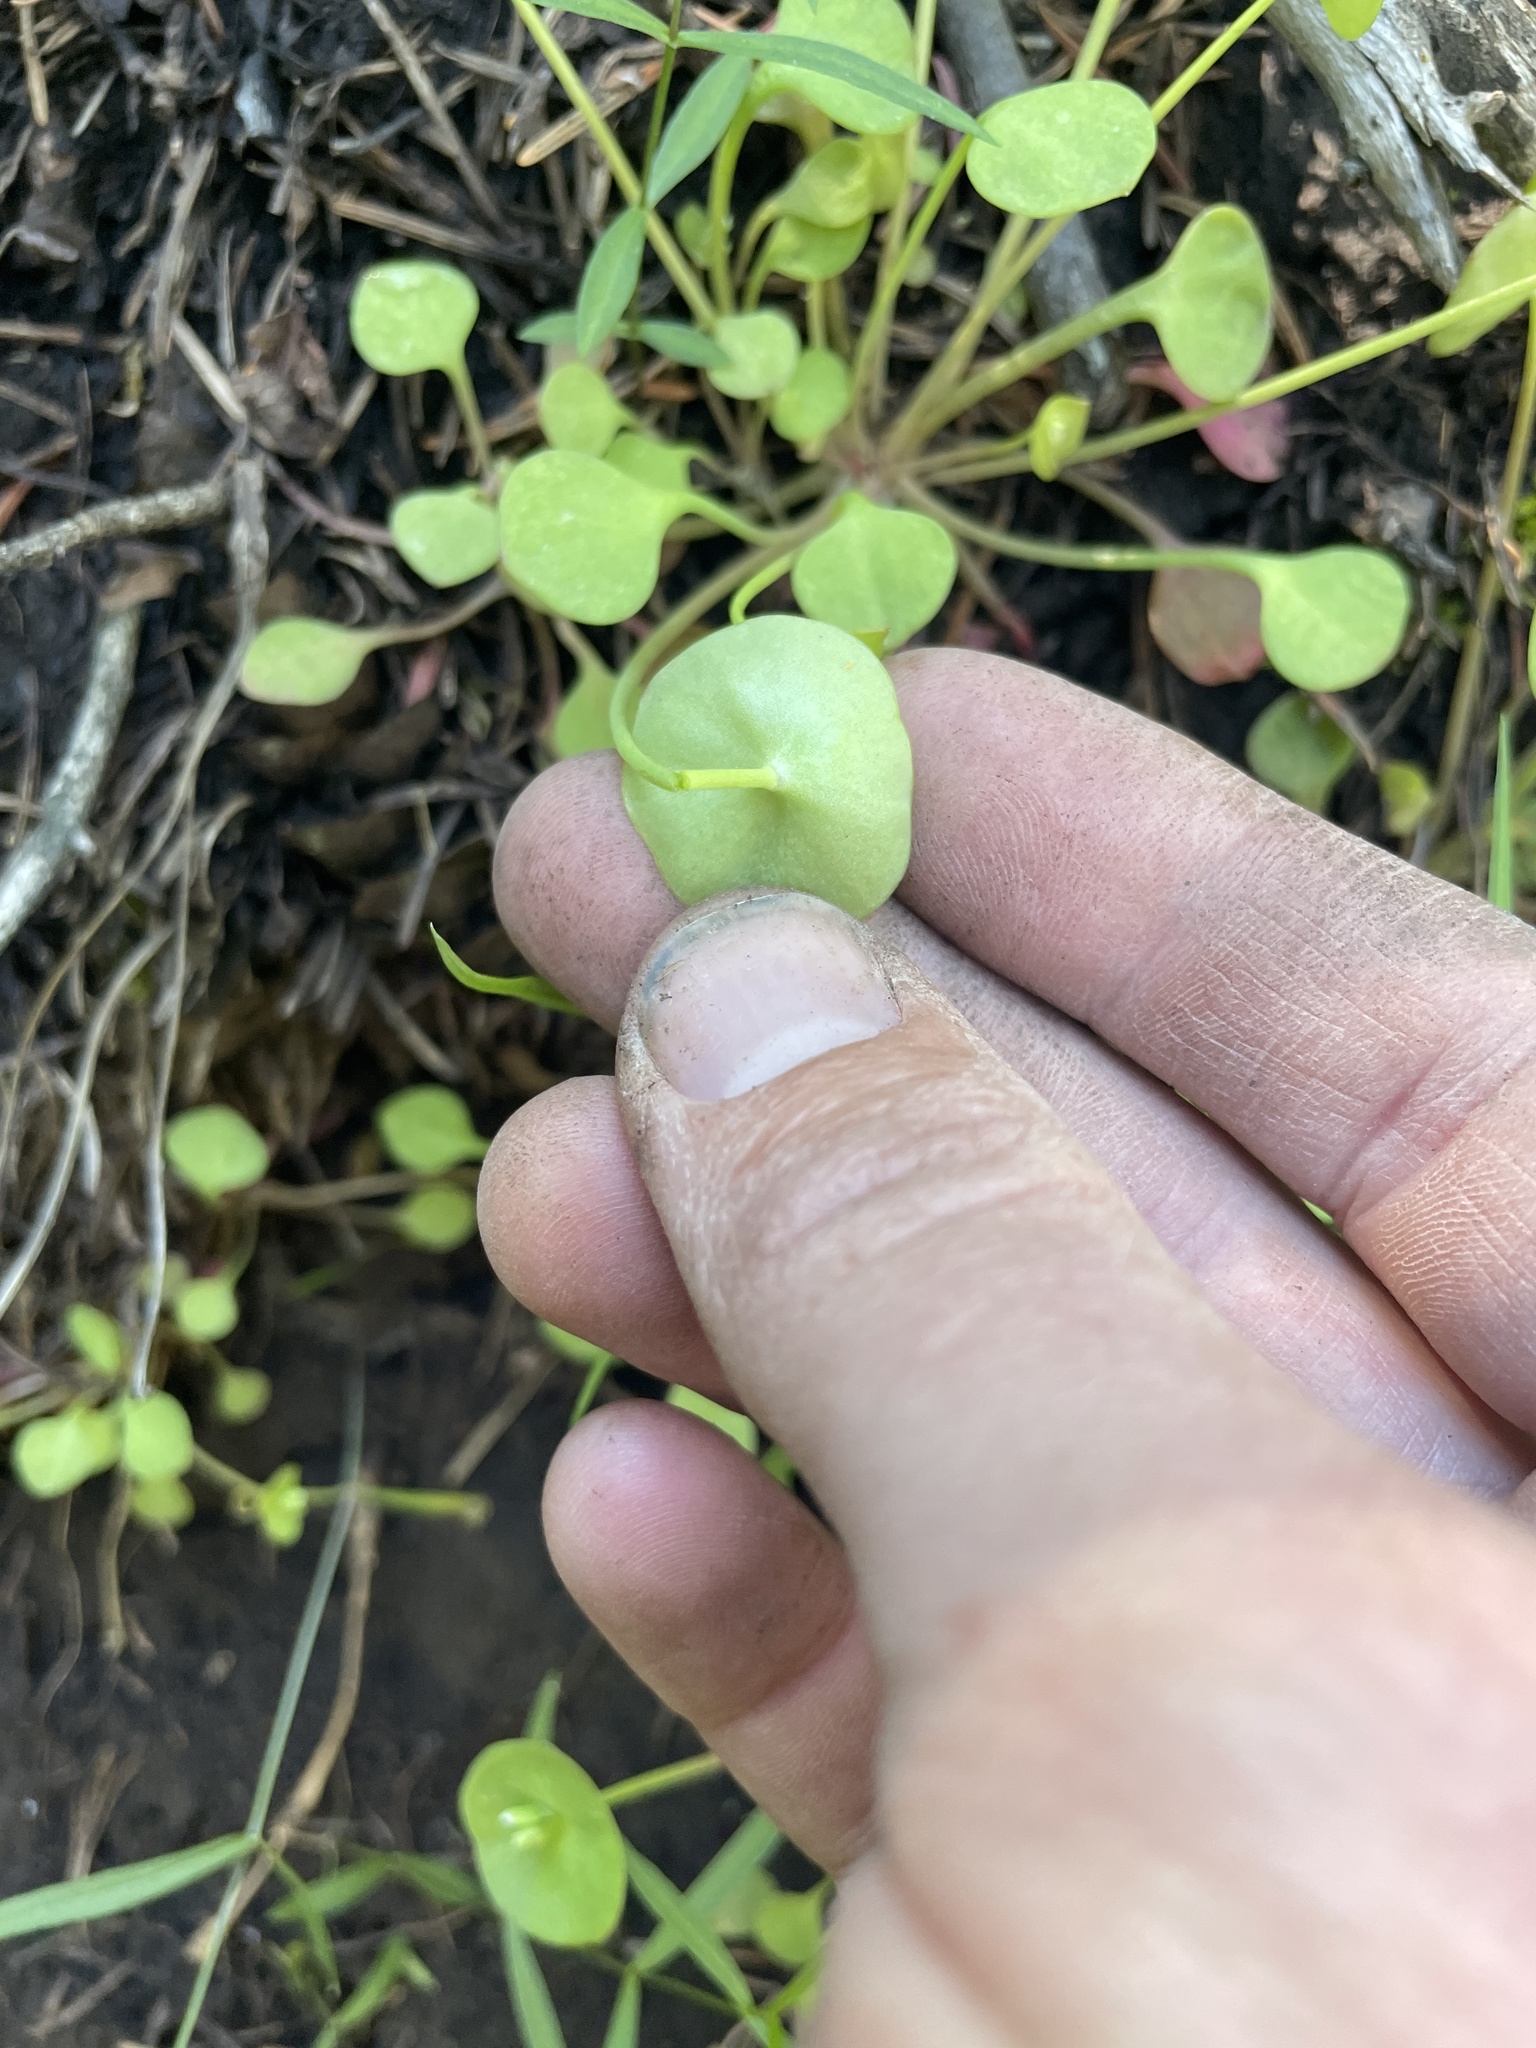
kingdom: Plantae
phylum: Tracheophyta
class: Magnoliopsida
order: Caryophyllales
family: Montiaceae
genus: Claytonia
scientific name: Claytonia perfoliata
